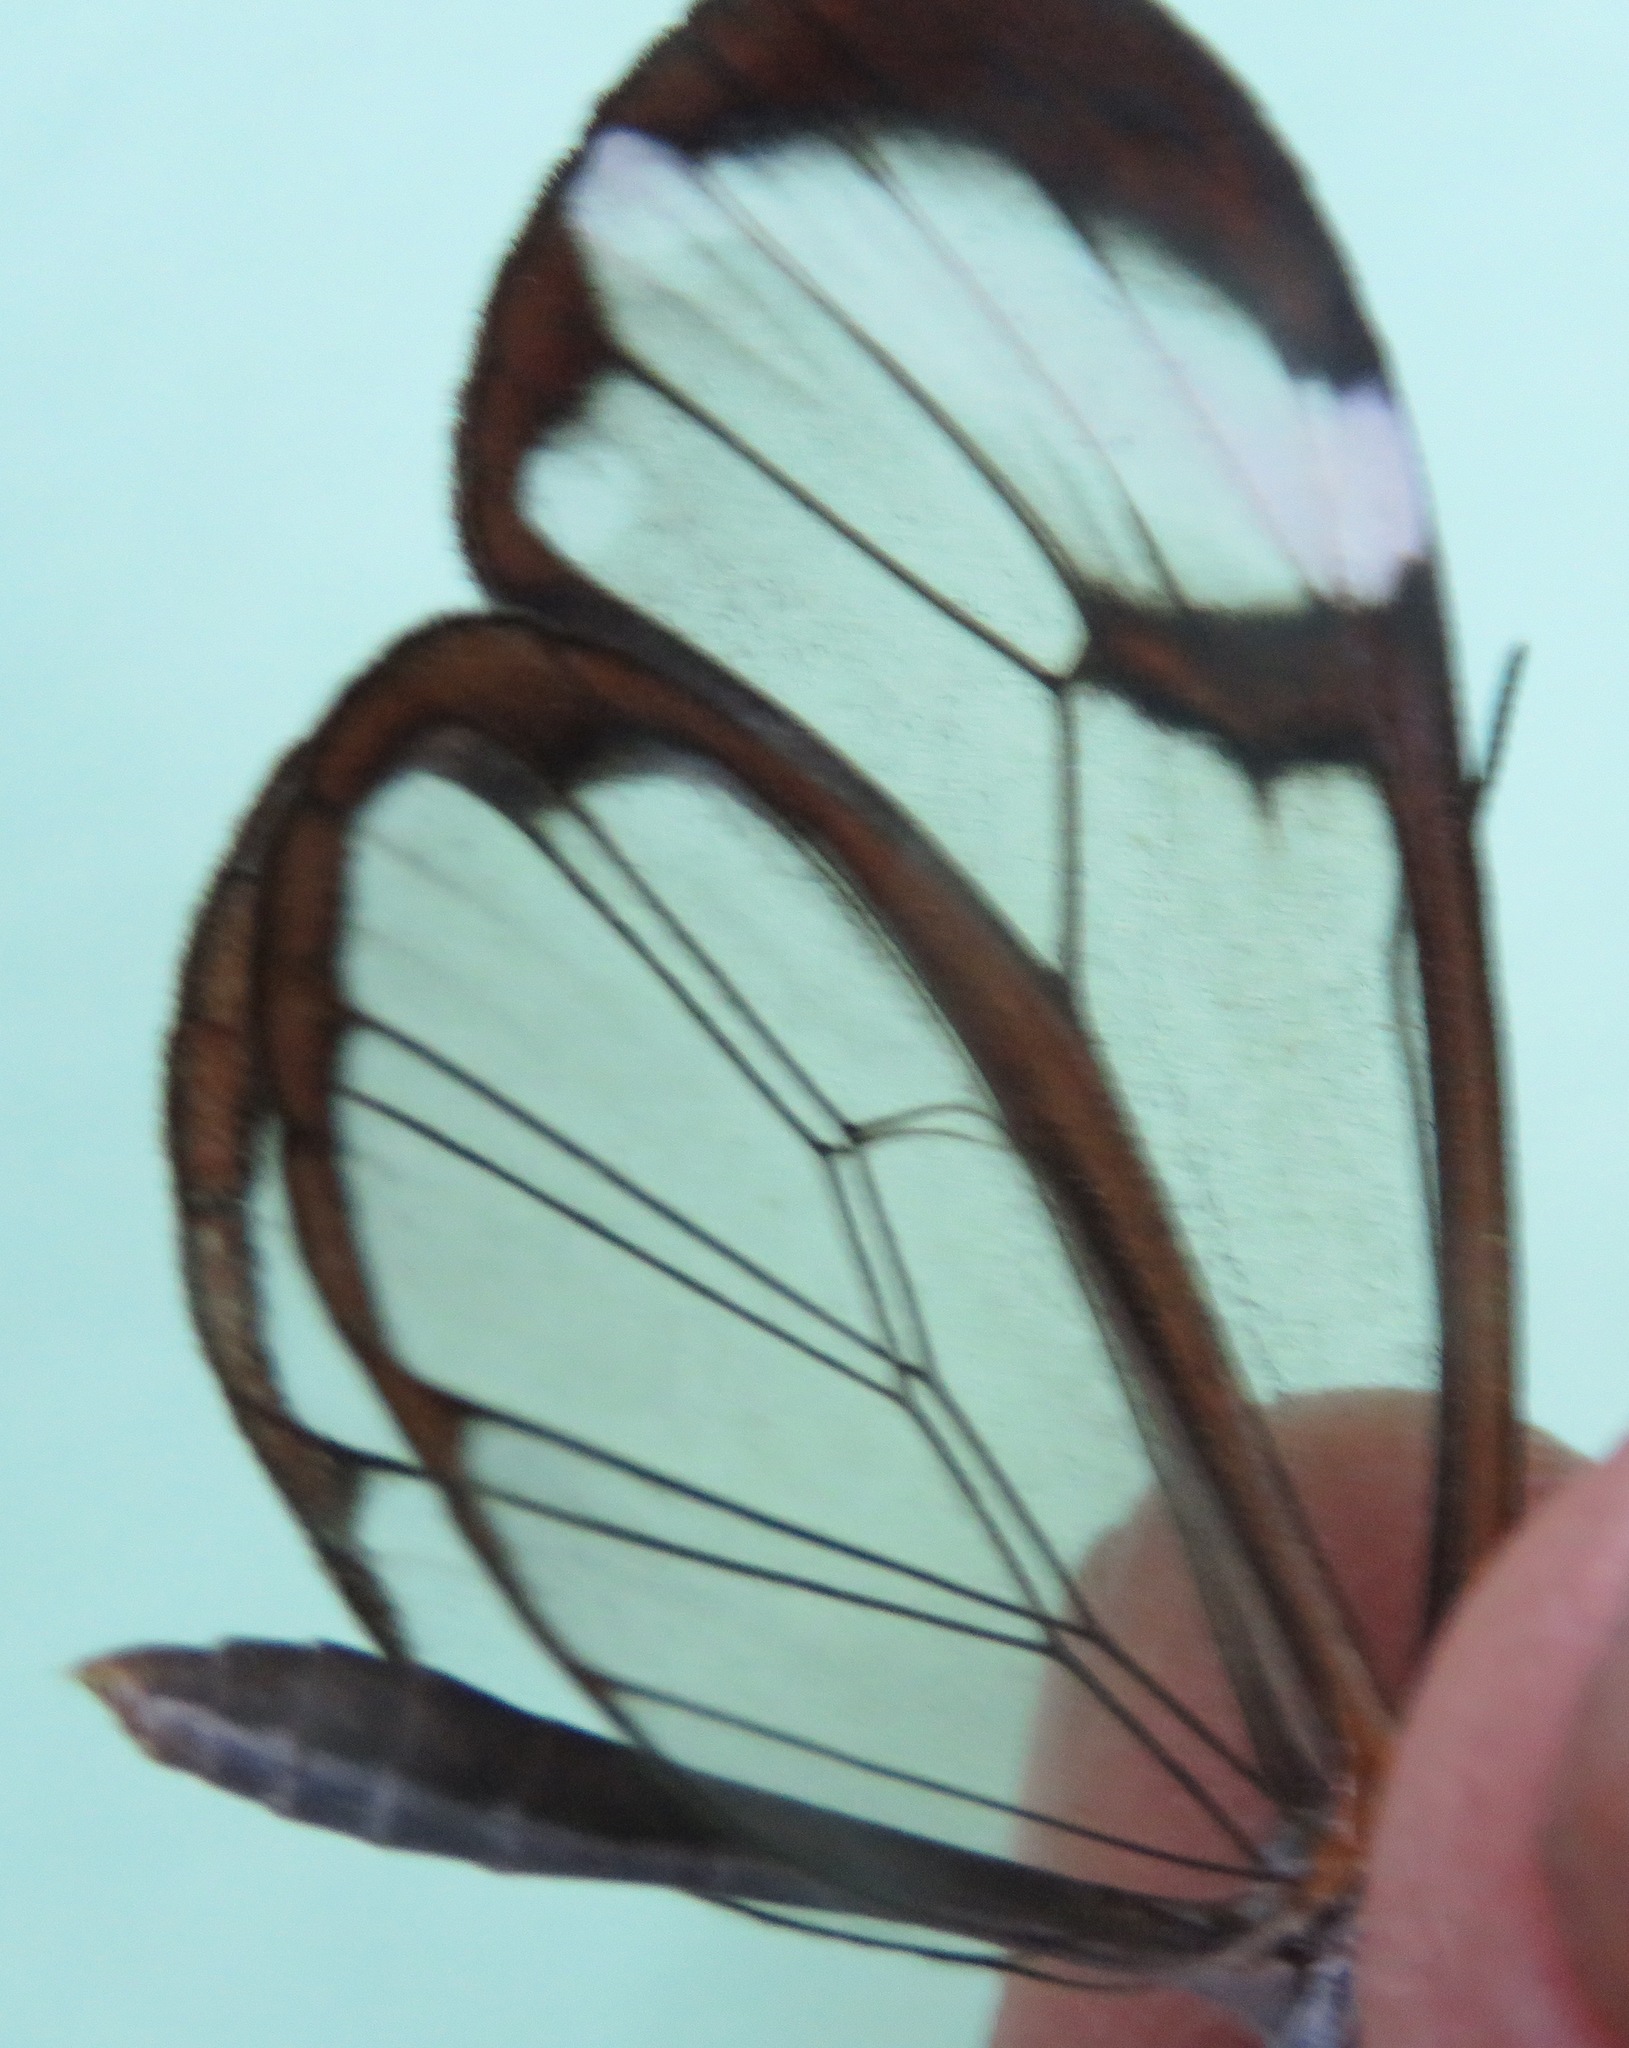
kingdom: Animalia
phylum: Arthropoda
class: Insecta
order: Lepidoptera
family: Nymphalidae
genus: Greta
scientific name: Greta morgane
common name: Thick-tipped greta
